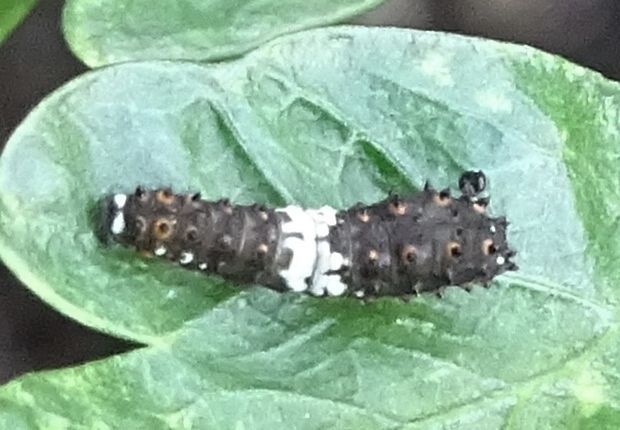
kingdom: Animalia
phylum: Arthropoda
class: Insecta
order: Lepidoptera
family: Papilionidae
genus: Papilio
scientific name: Papilio polyxenes
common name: Black swallowtail
